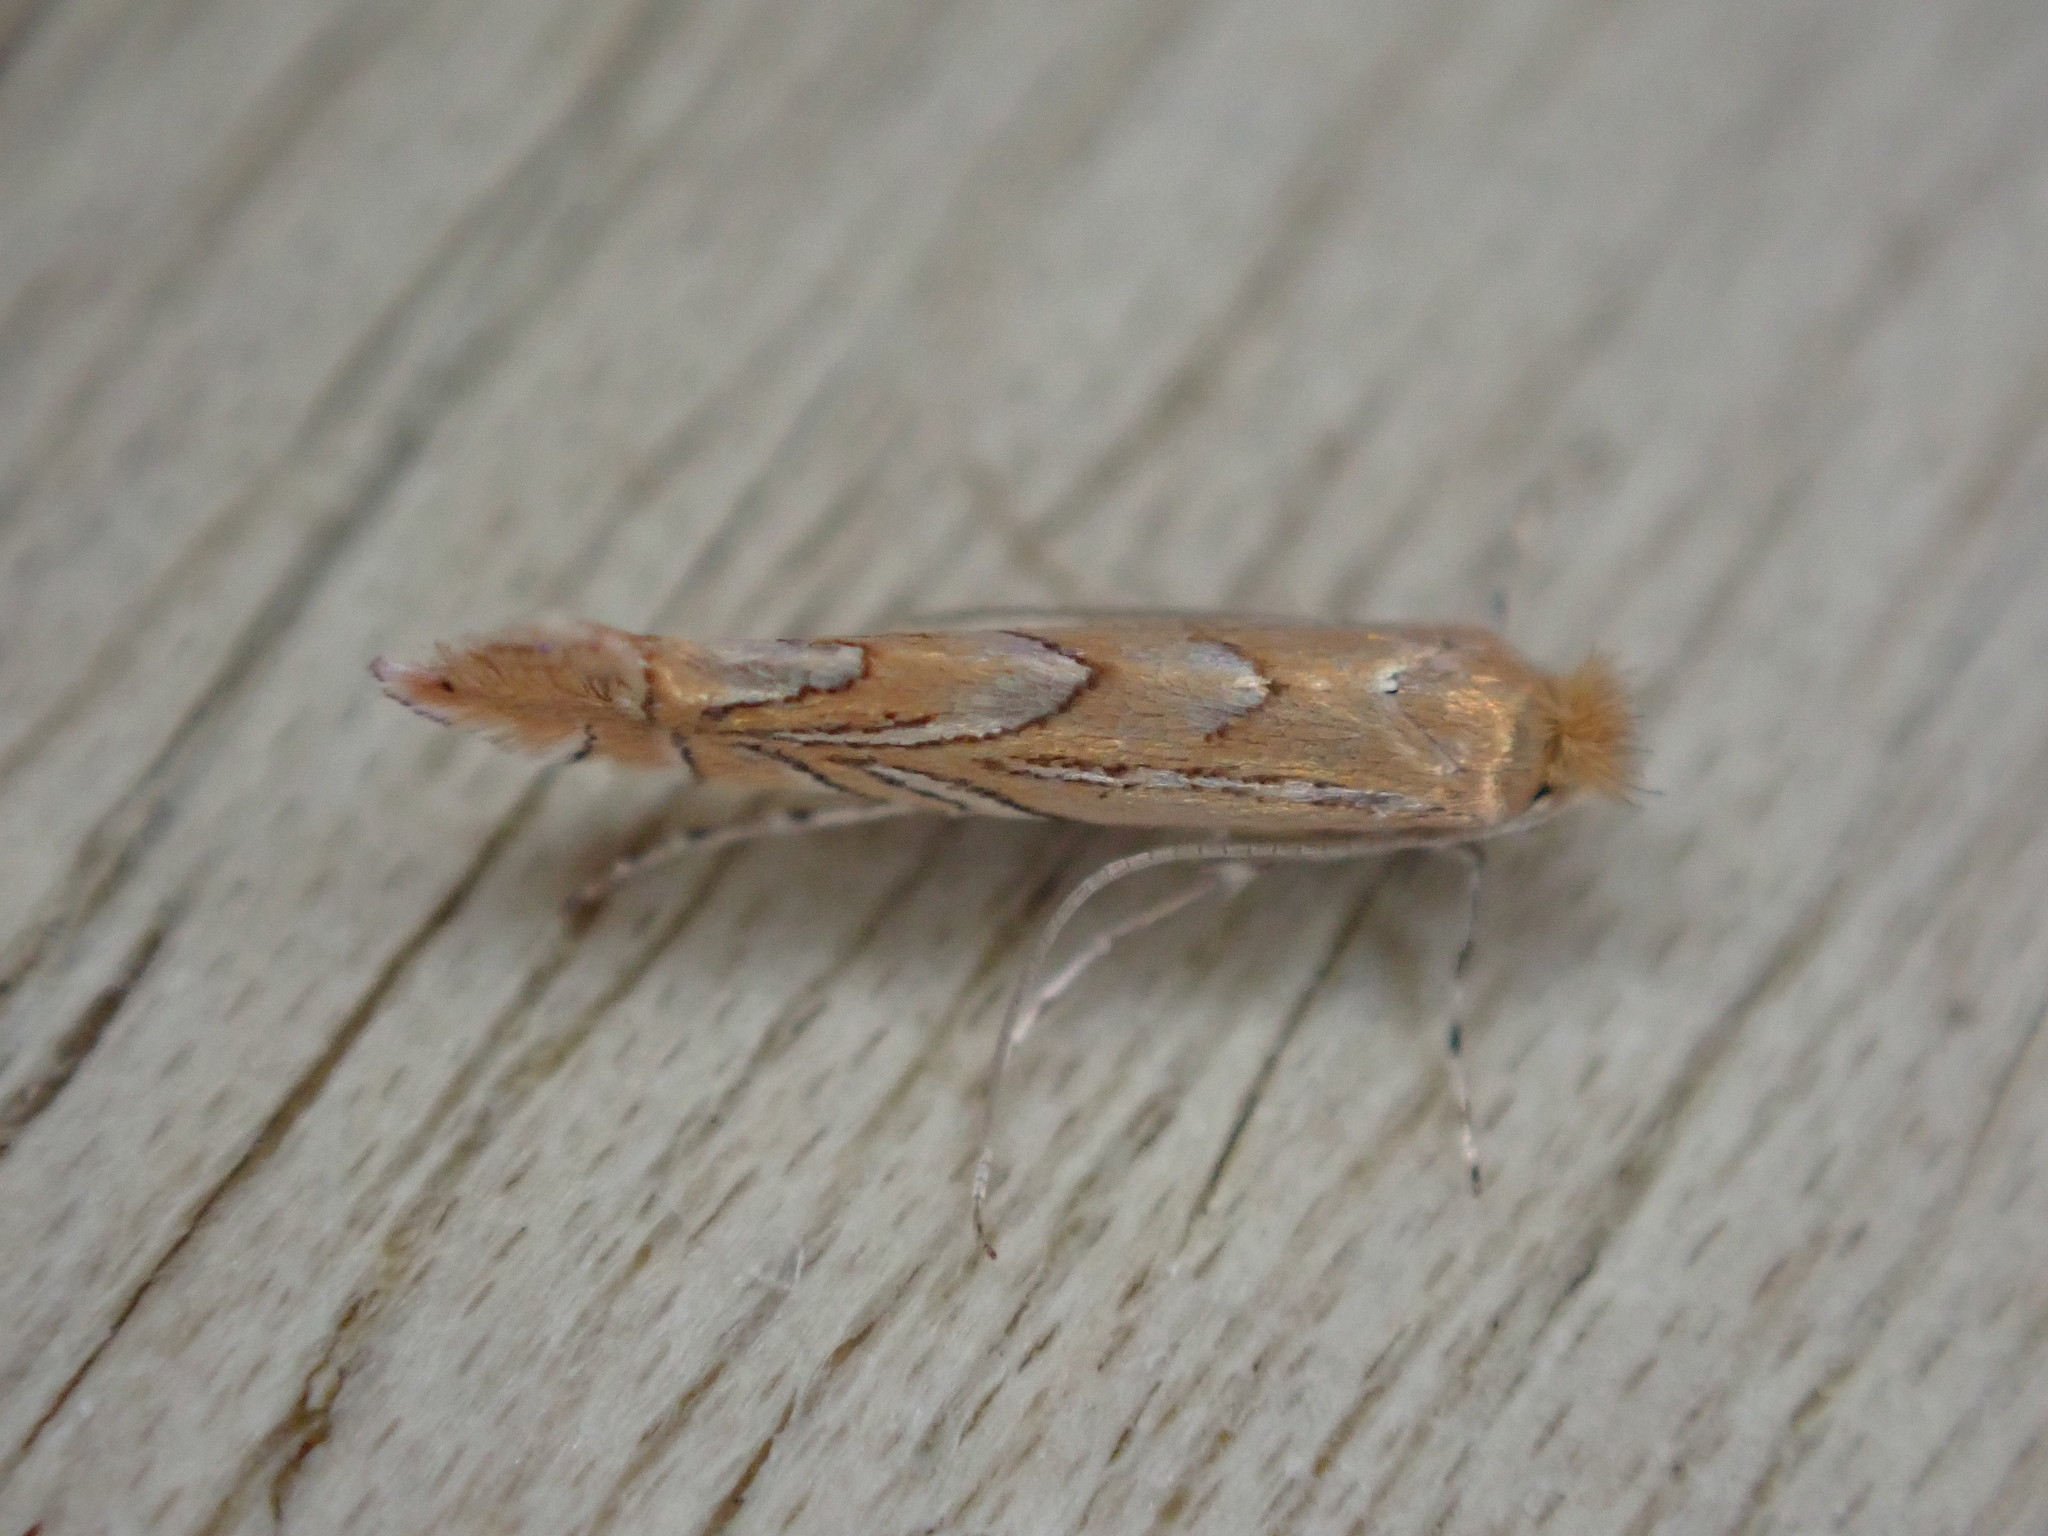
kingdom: Animalia
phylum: Arthropoda
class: Insecta
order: Lepidoptera
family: Gracillariidae
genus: Phyllonorycter
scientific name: Phyllonorycter messaniella
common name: Garden midget
